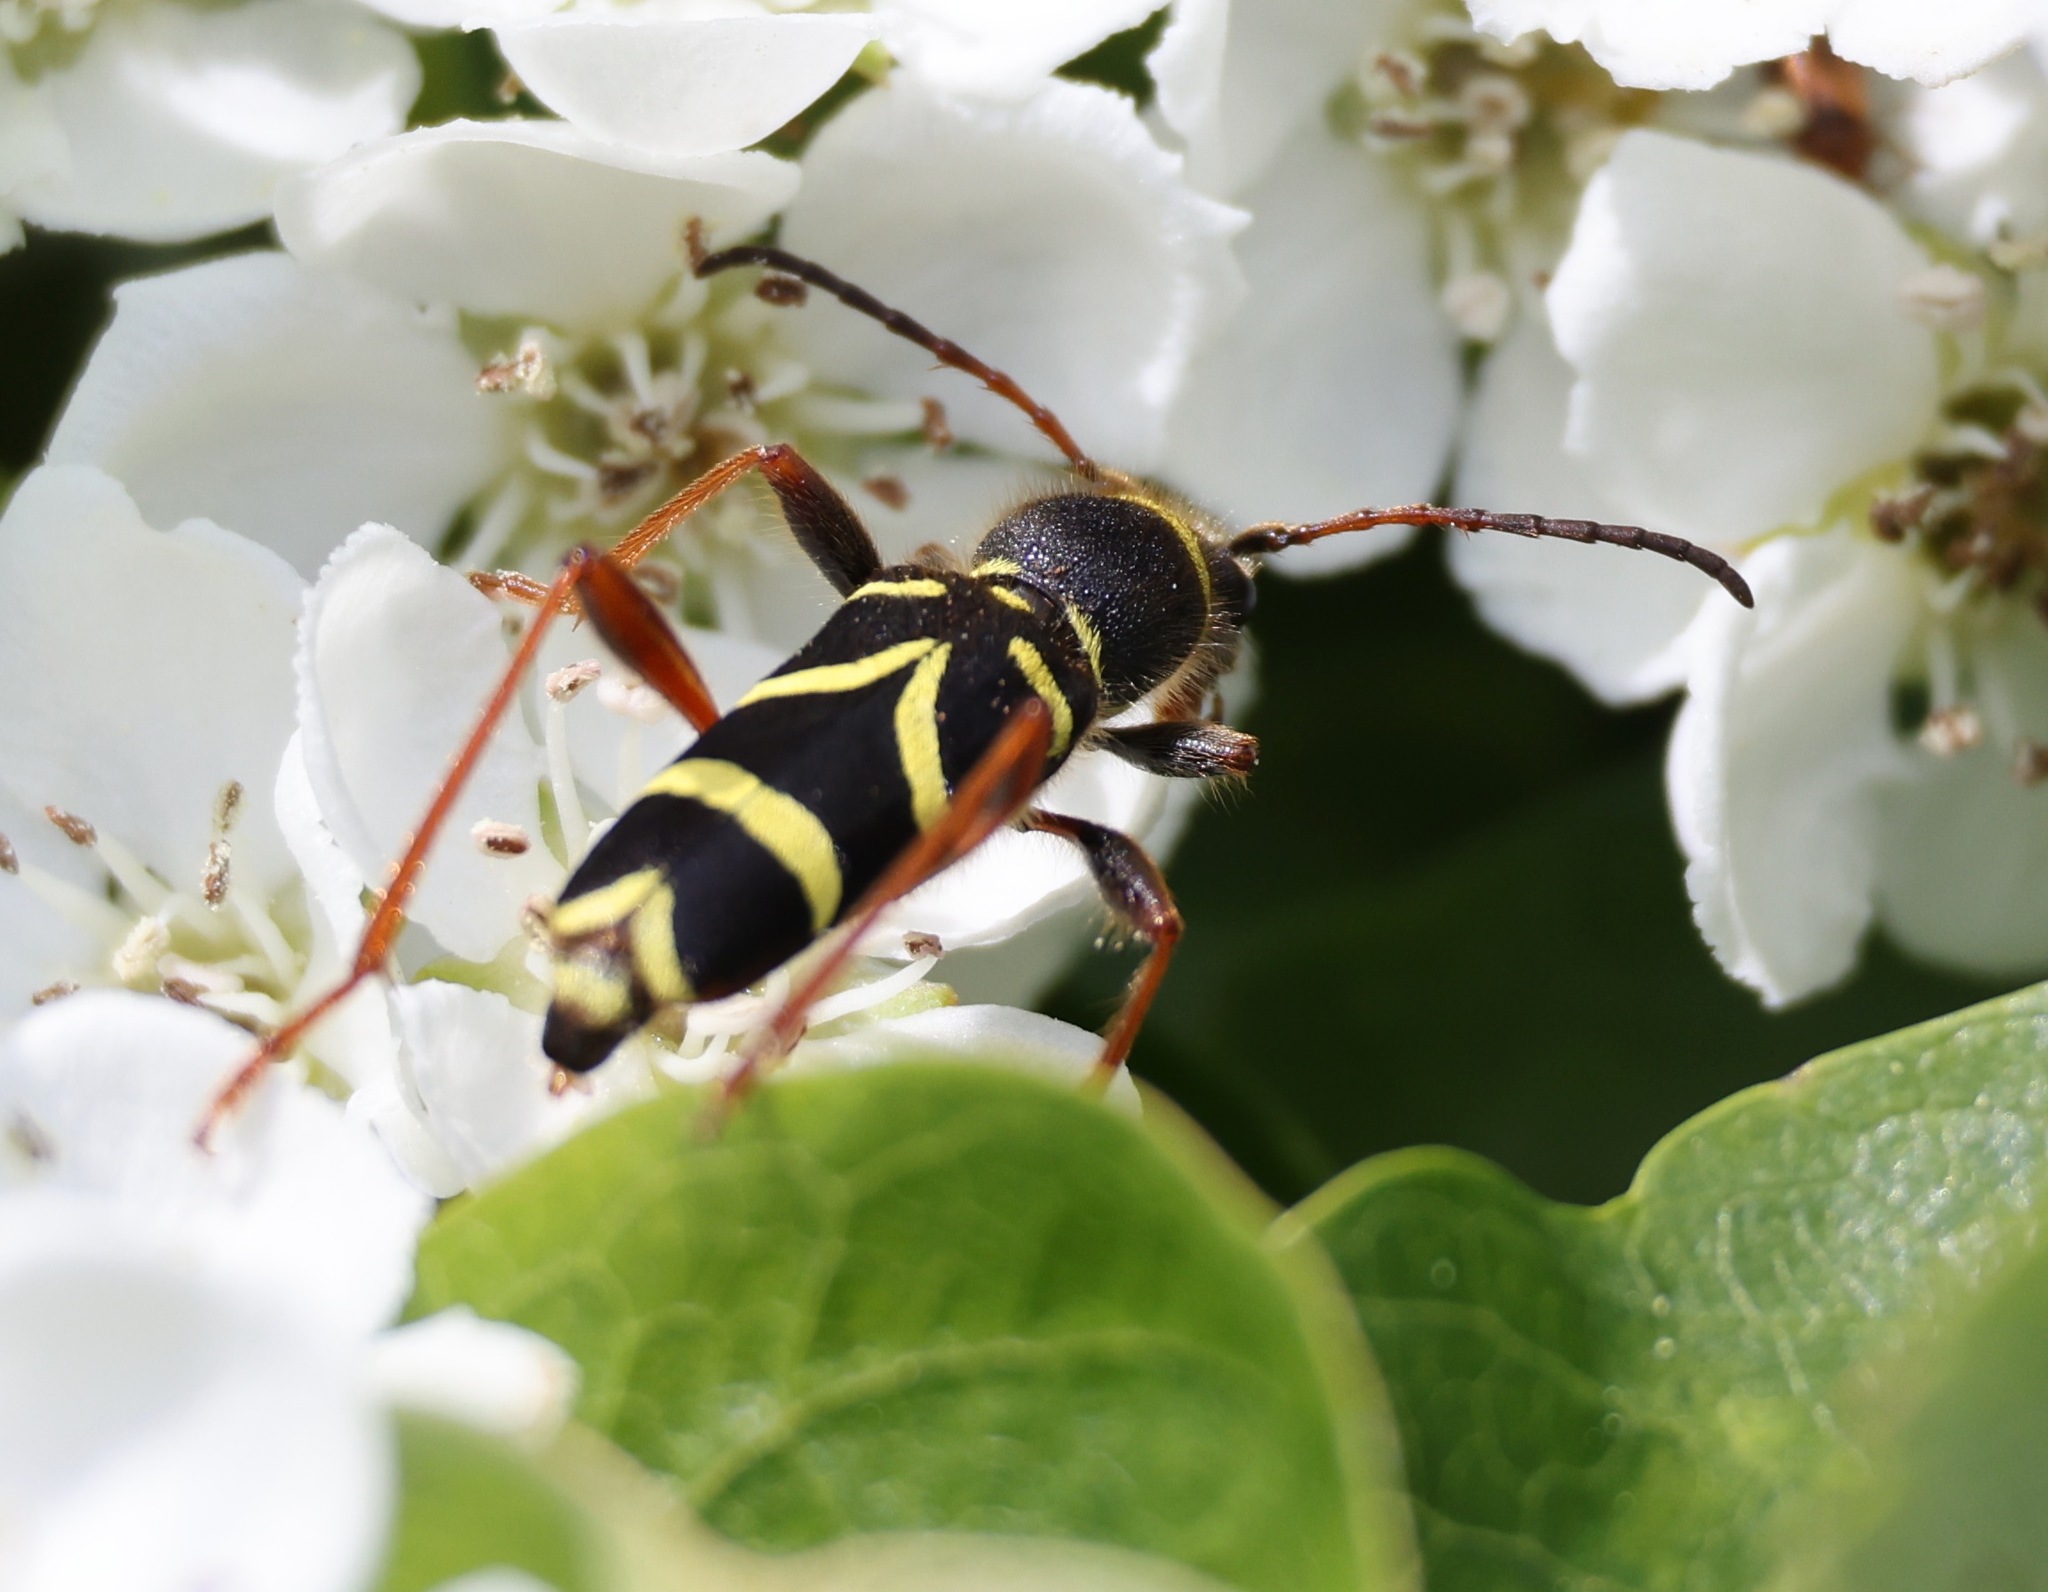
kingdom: Animalia
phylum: Arthropoda
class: Insecta
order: Coleoptera
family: Cerambycidae
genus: Clytus
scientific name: Clytus arietis
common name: Wasp beetle
